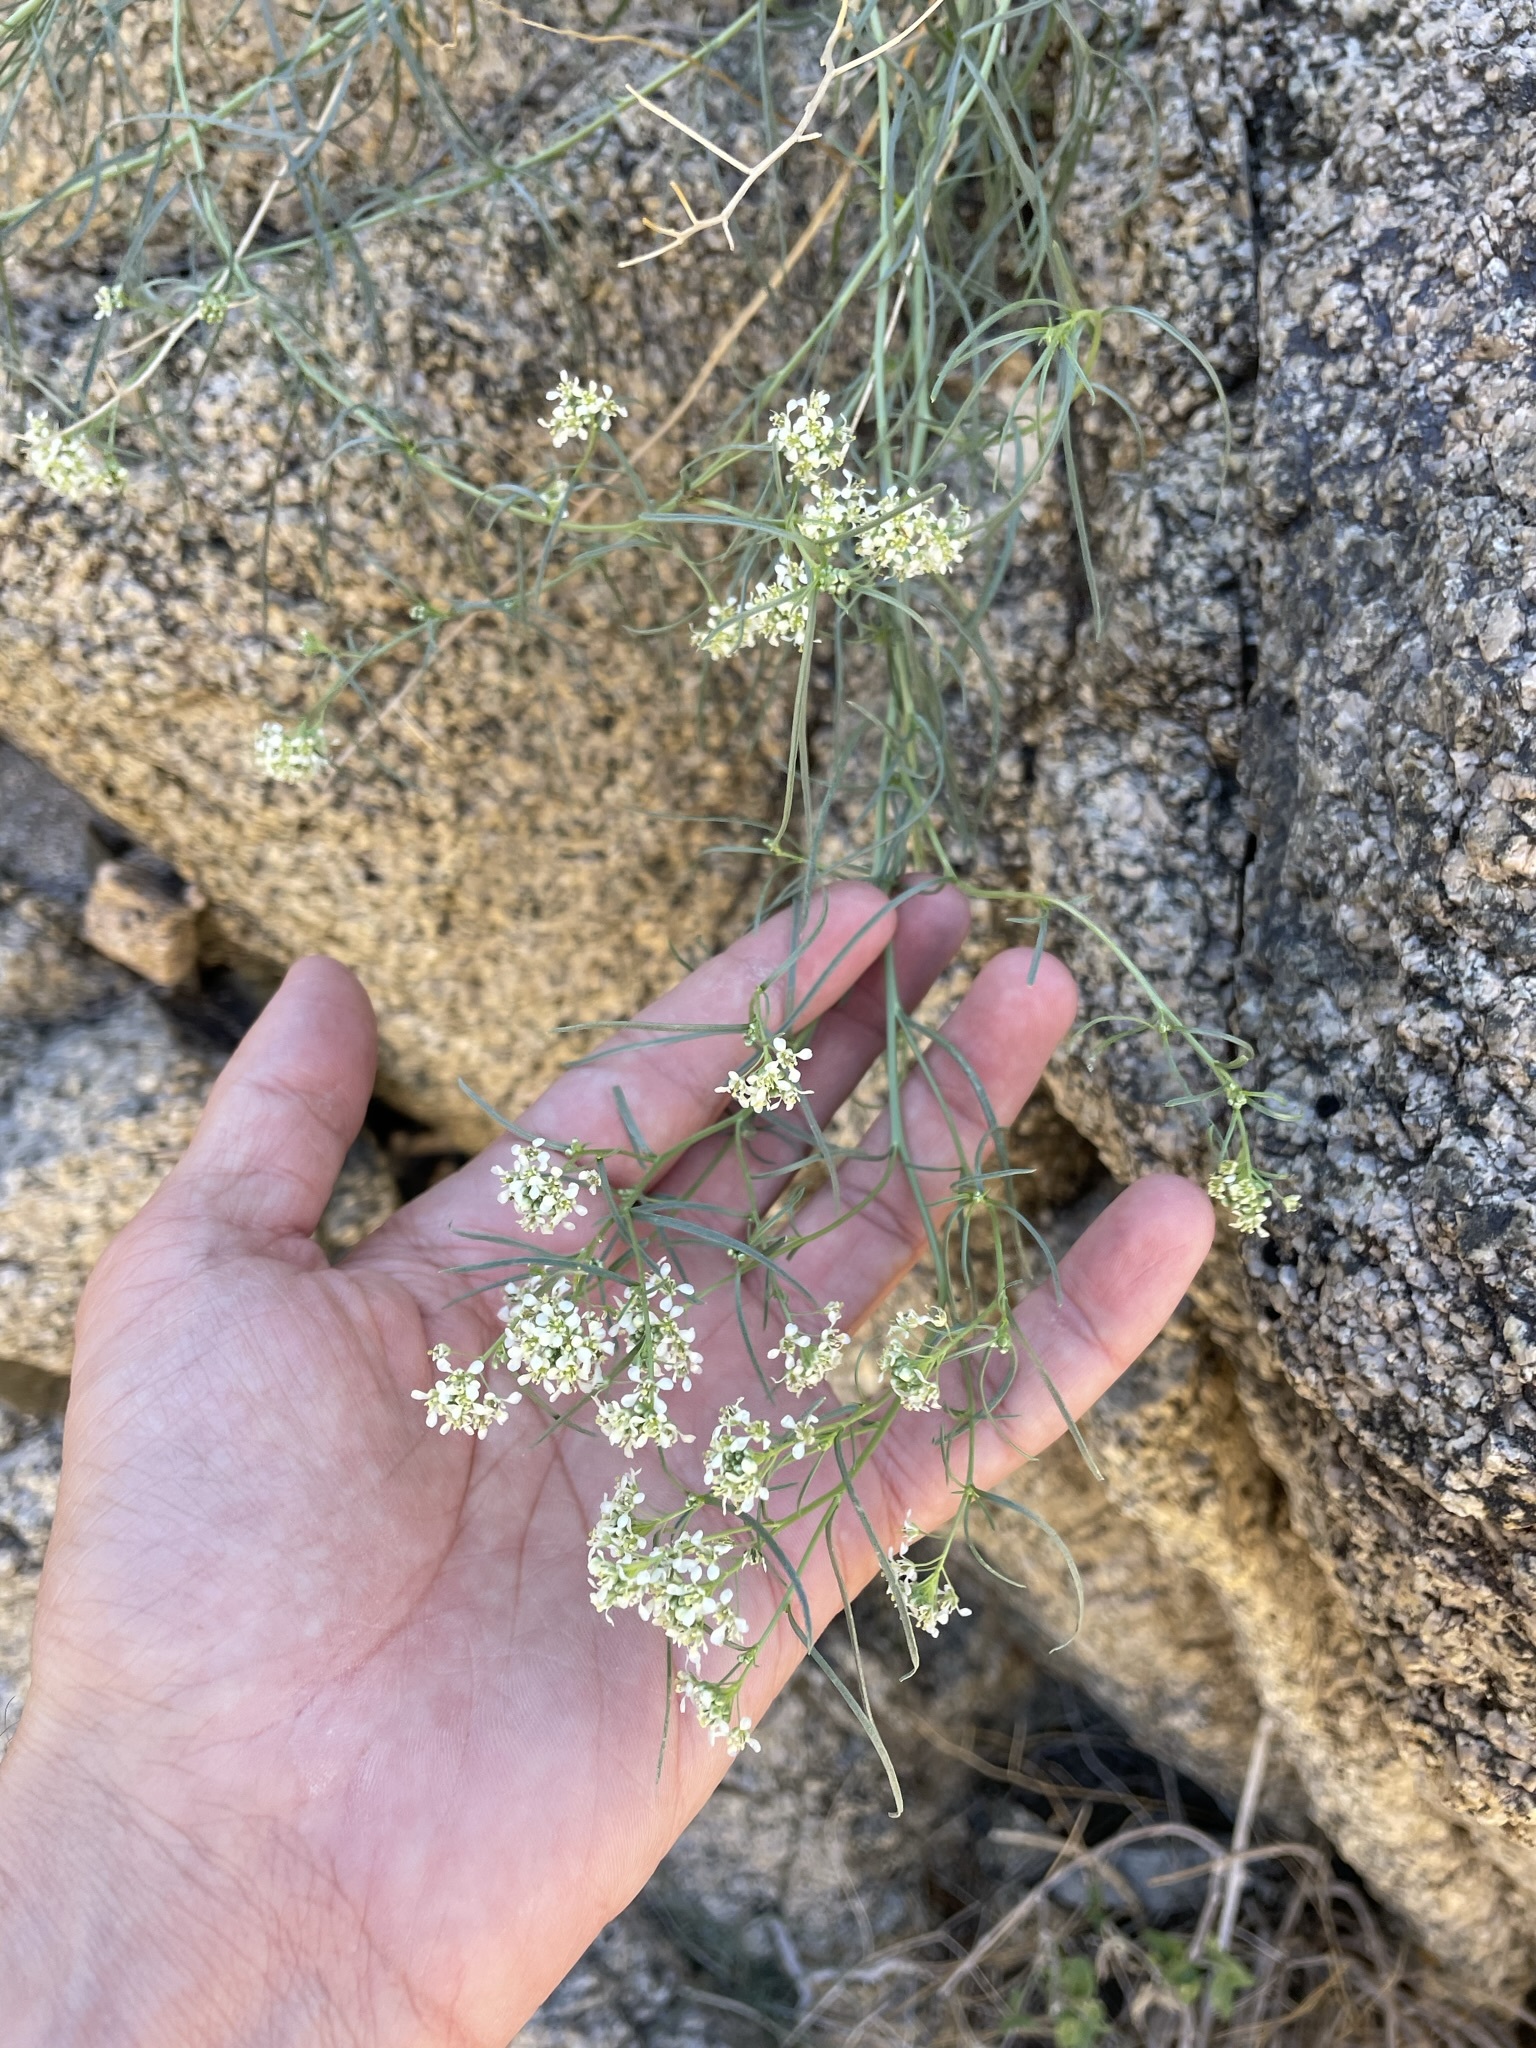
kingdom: Plantae
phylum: Tracheophyta
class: Magnoliopsida
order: Brassicales
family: Brassicaceae
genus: Lepidium
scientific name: Lepidium fremontii
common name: Fremont's pepperwort
